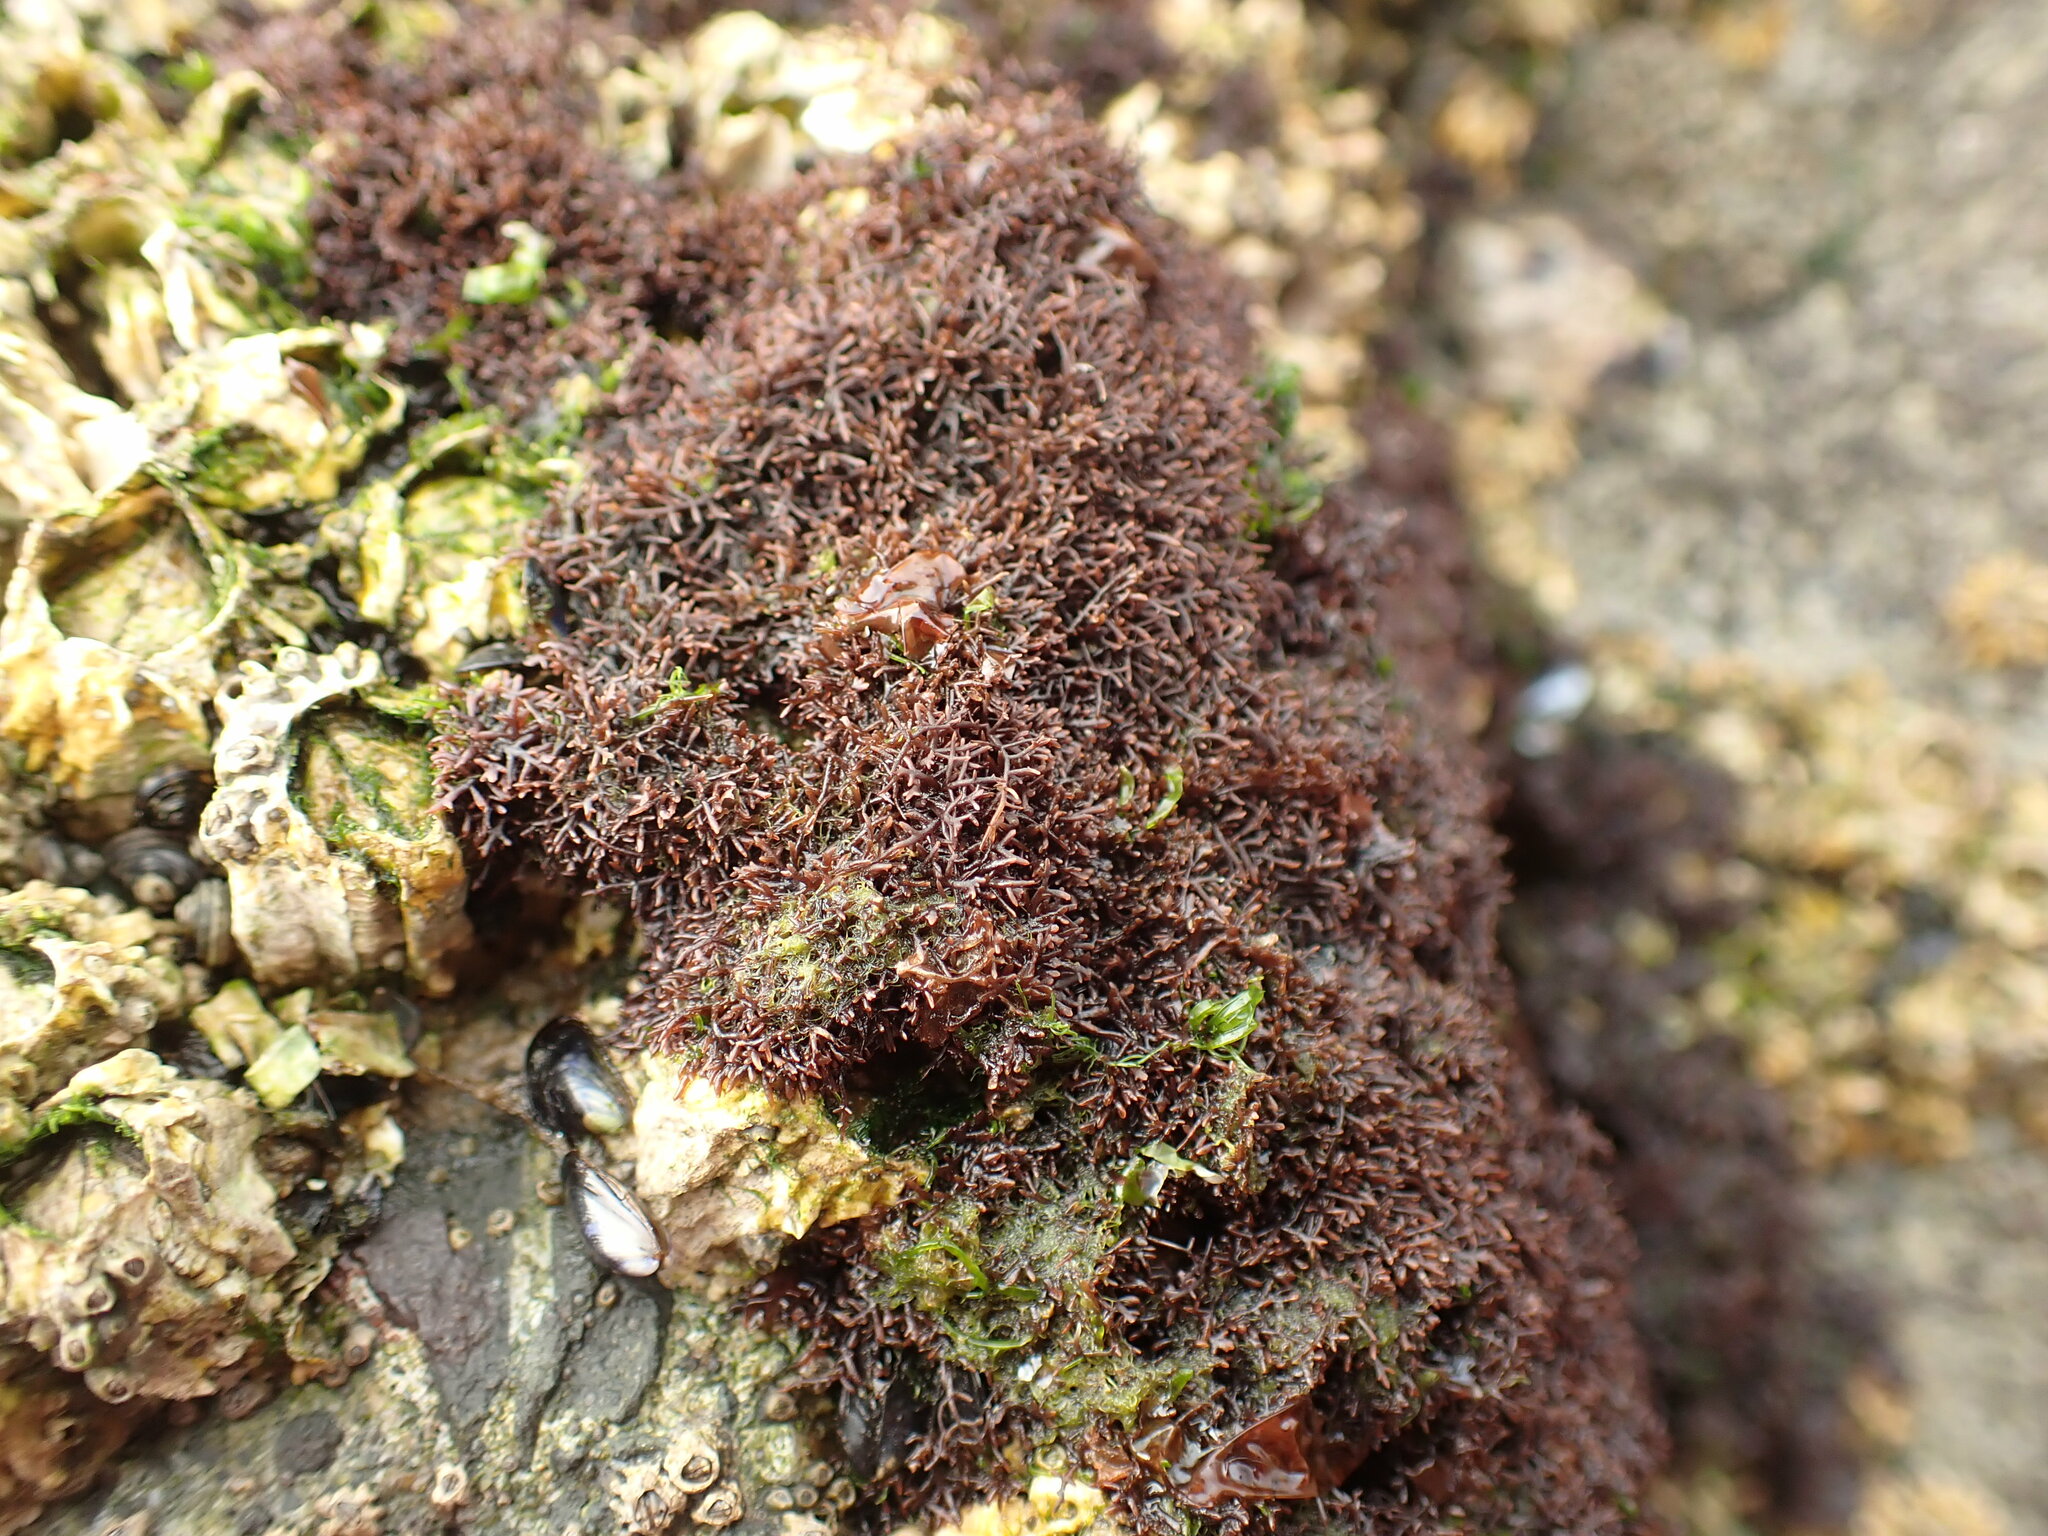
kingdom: Plantae
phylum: Rhodophyta
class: Florideophyceae
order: Gelidiales
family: Gelidiaceae
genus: Capreolia
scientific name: Capreolia implexa
